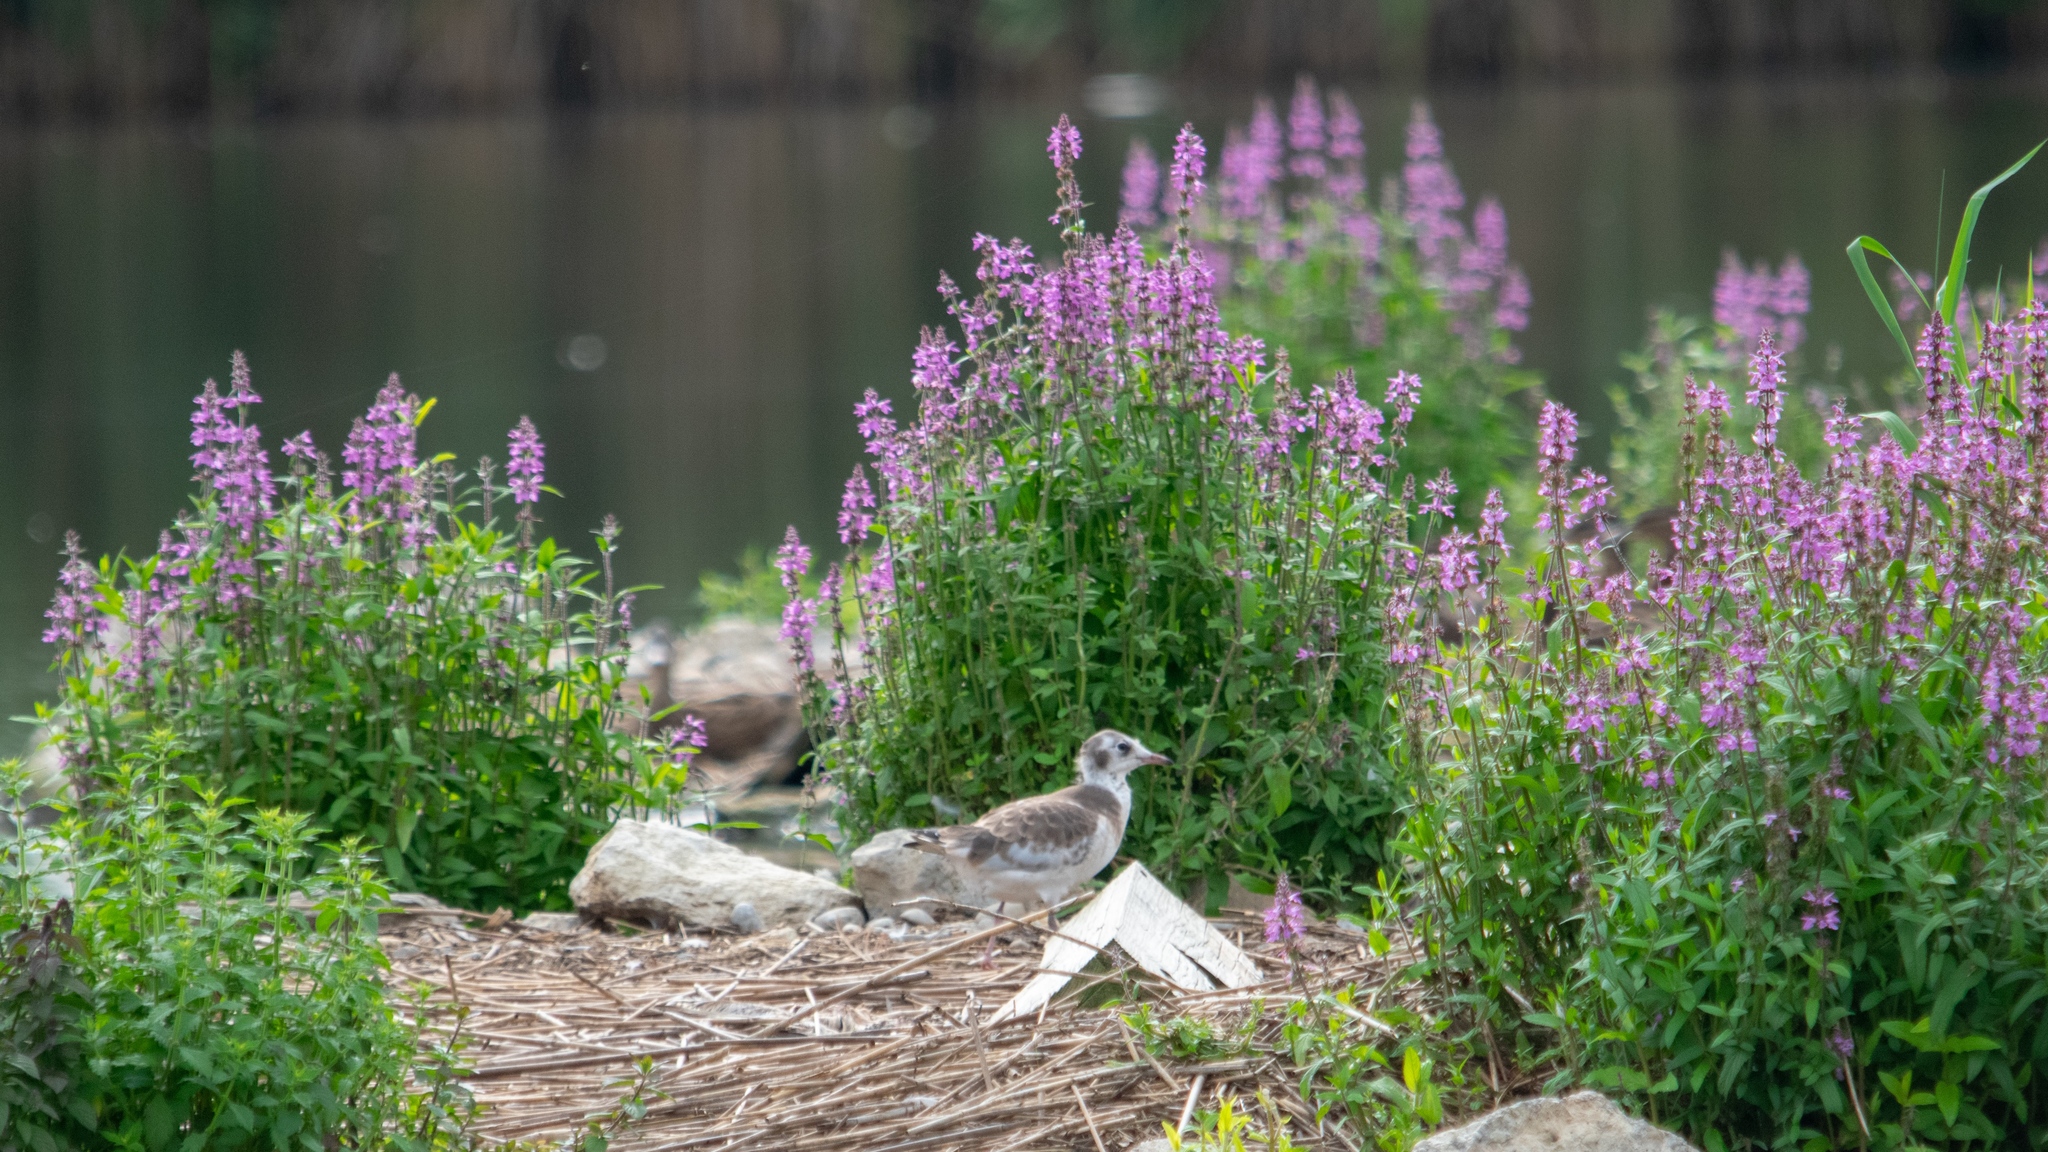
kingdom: Animalia
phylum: Chordata
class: Aves
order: Charadriiformes
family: Laridae
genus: Chroicocephalus
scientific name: Chroicocephalus ridibundus
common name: Black-headed gull
